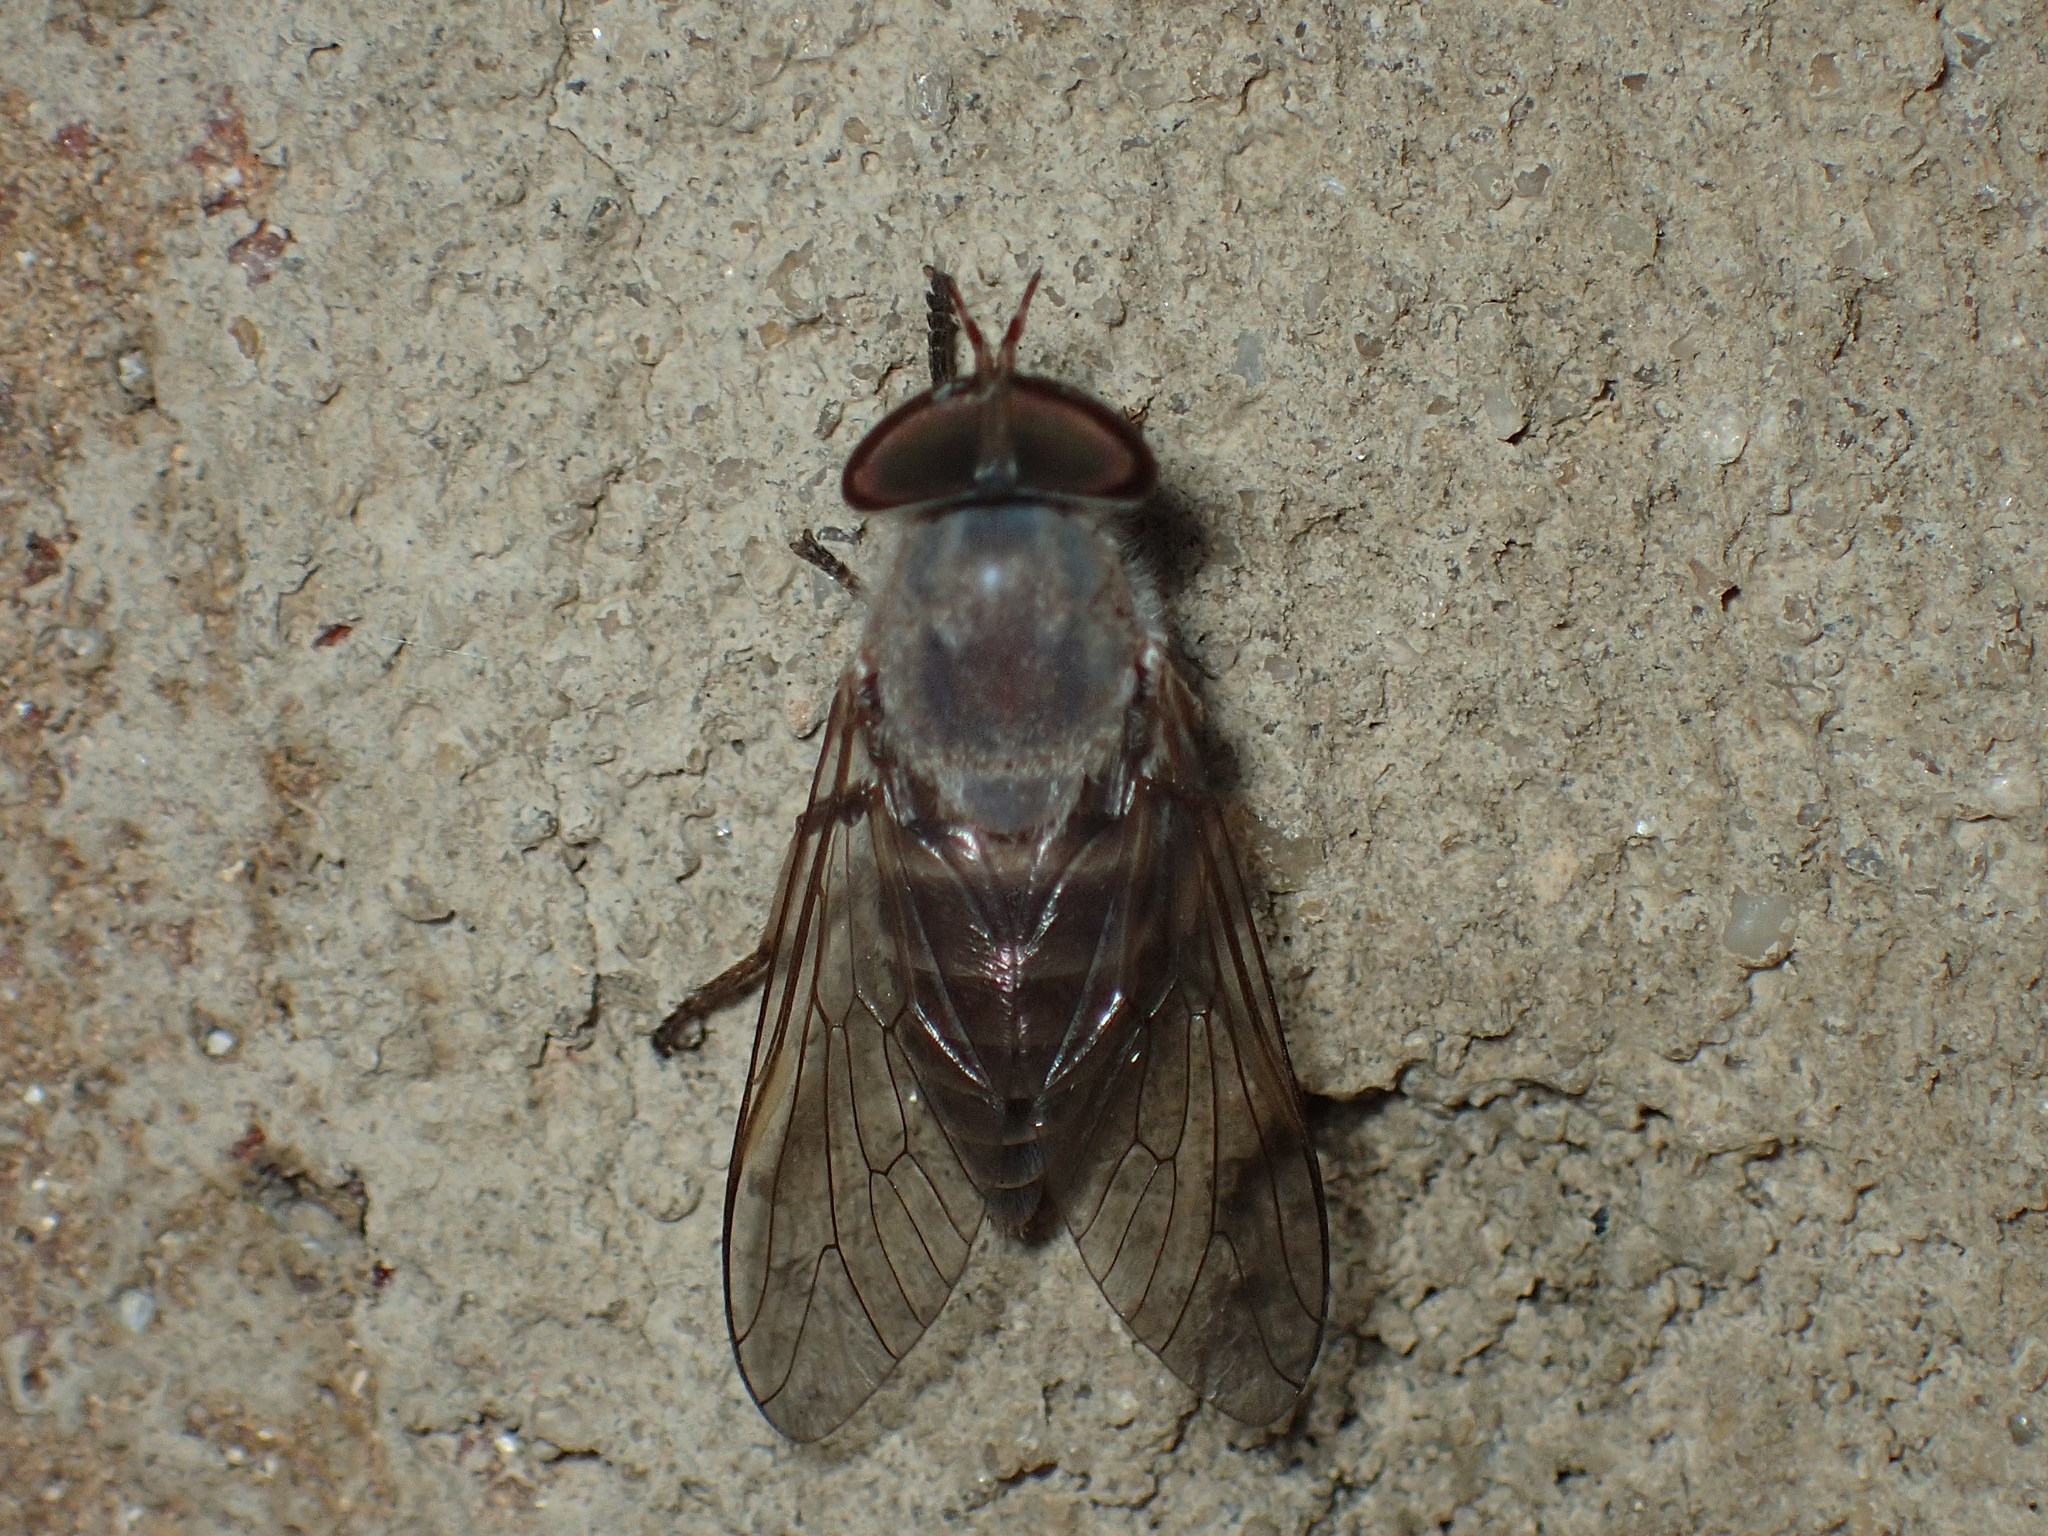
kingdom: Animalia
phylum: Arthropoda
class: Insecta
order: Diptera
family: Tabanidae
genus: Leucotabanus
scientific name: Leucotabanus annulatus
